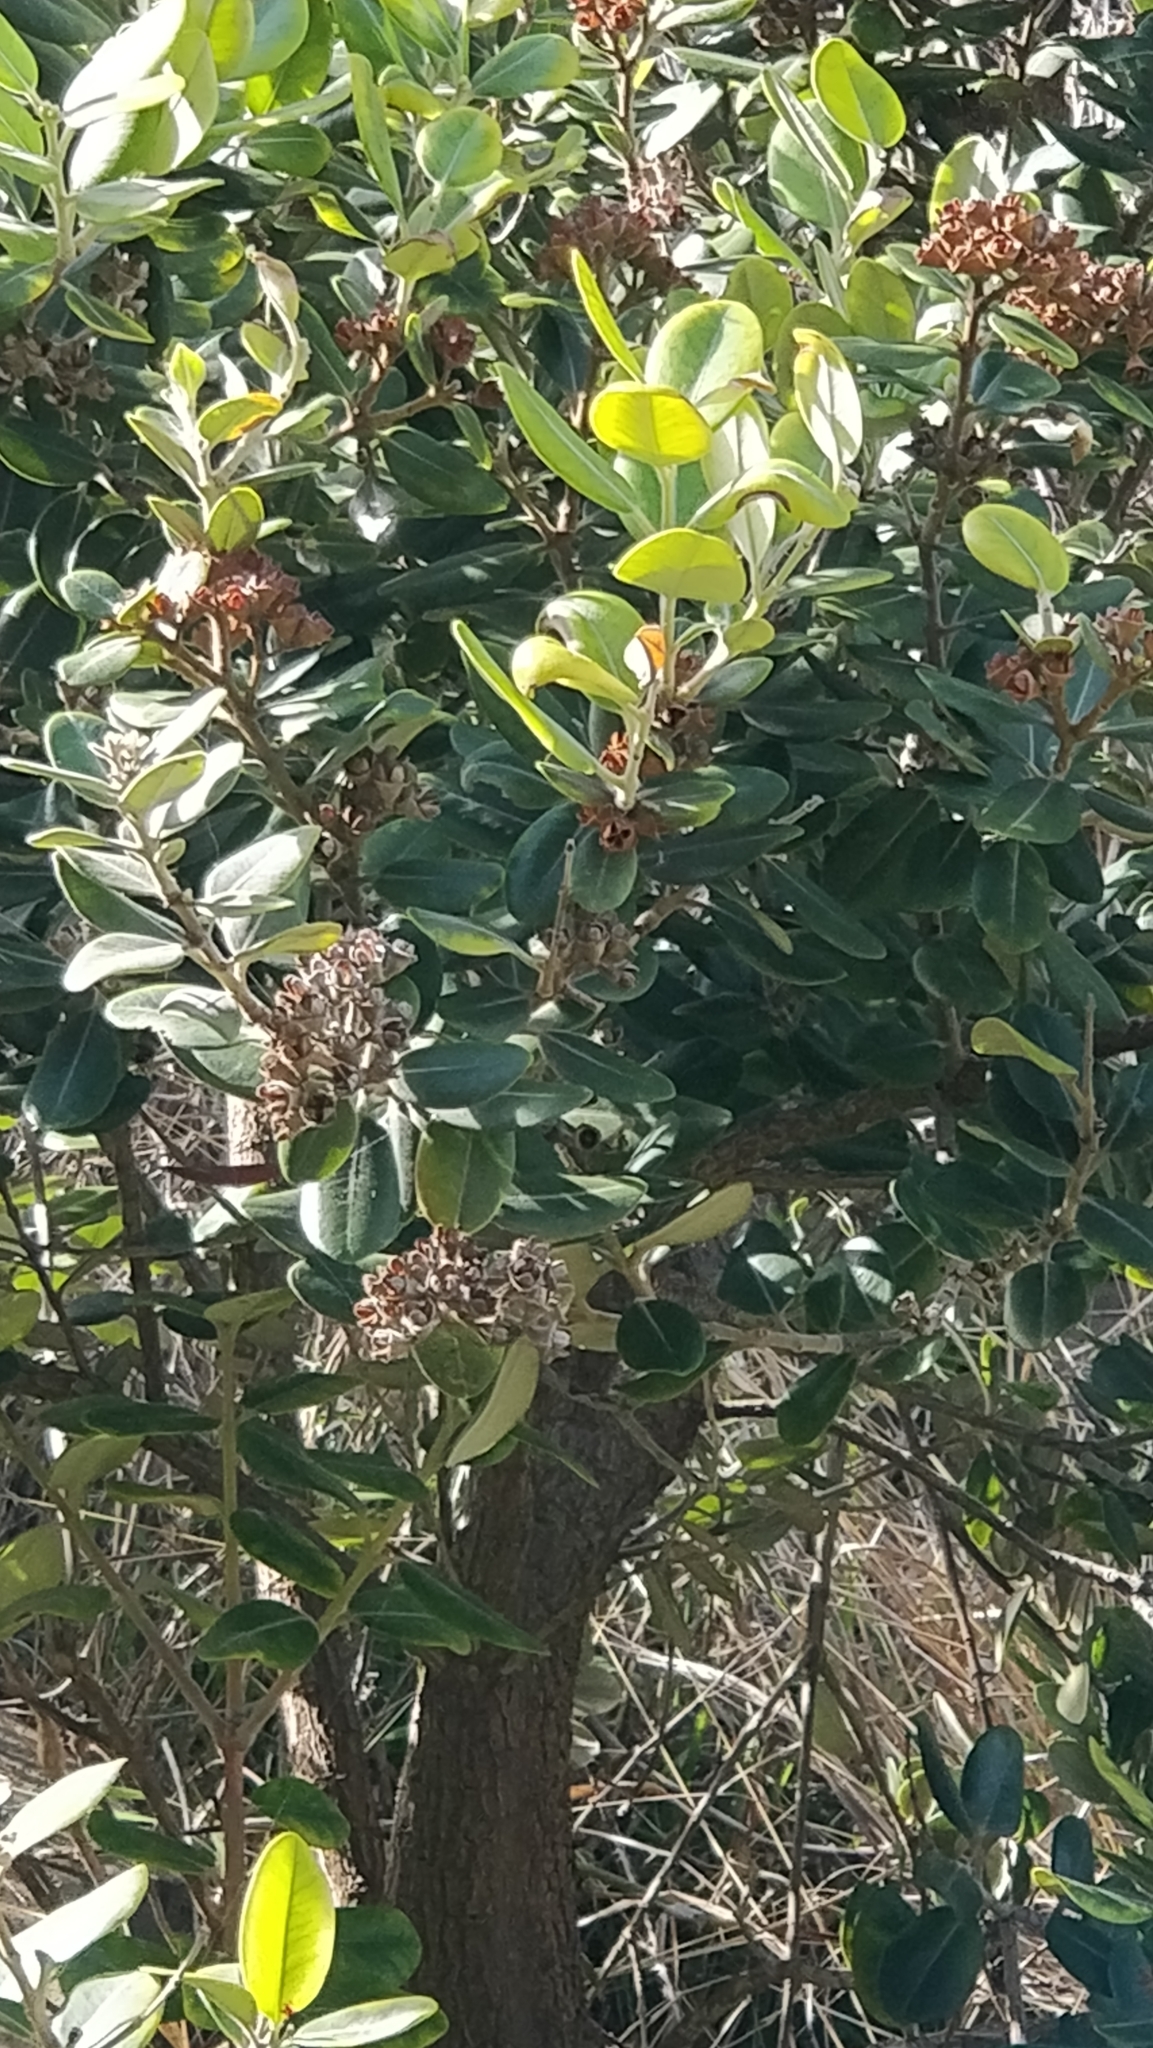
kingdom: Plantae
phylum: Tracheophyta
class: Magnoliopsida
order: Myrtales
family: Myrtaceae
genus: Metrosideros
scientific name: Metrosideros excelsa
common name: New zealand christmastree
